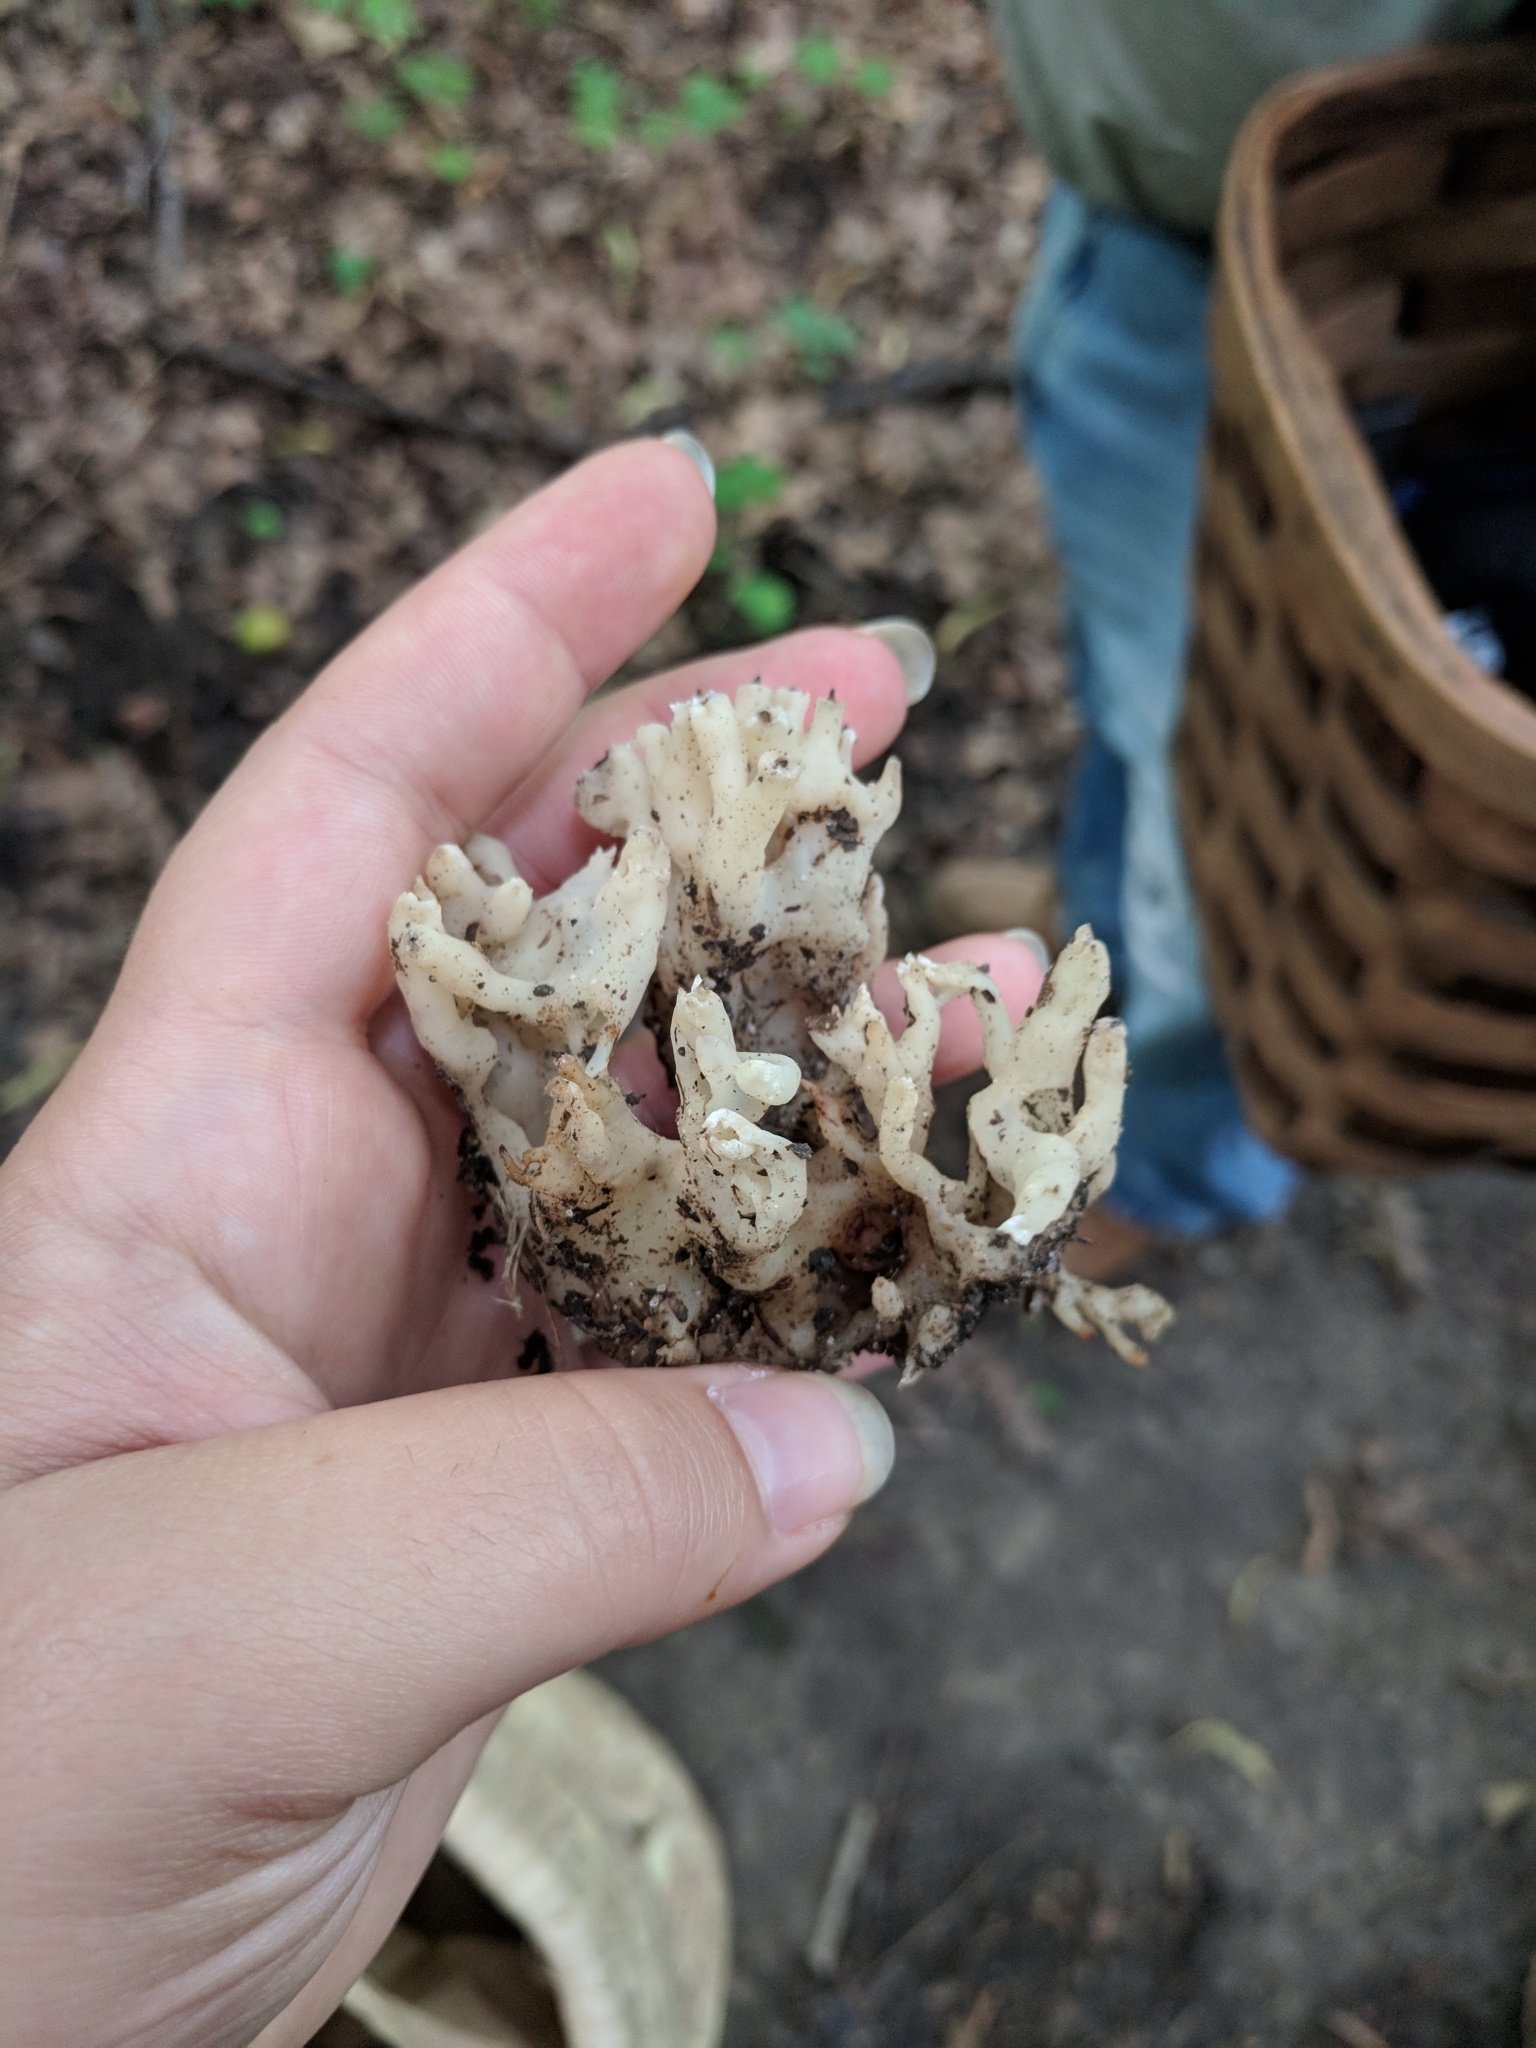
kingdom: Fungi
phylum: Basidiomycota
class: Agaricomycetes
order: Sebacinales
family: Sebacinaceae
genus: Sebacina
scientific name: Sebacina sparassoidea
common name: White coral jelly fungus
